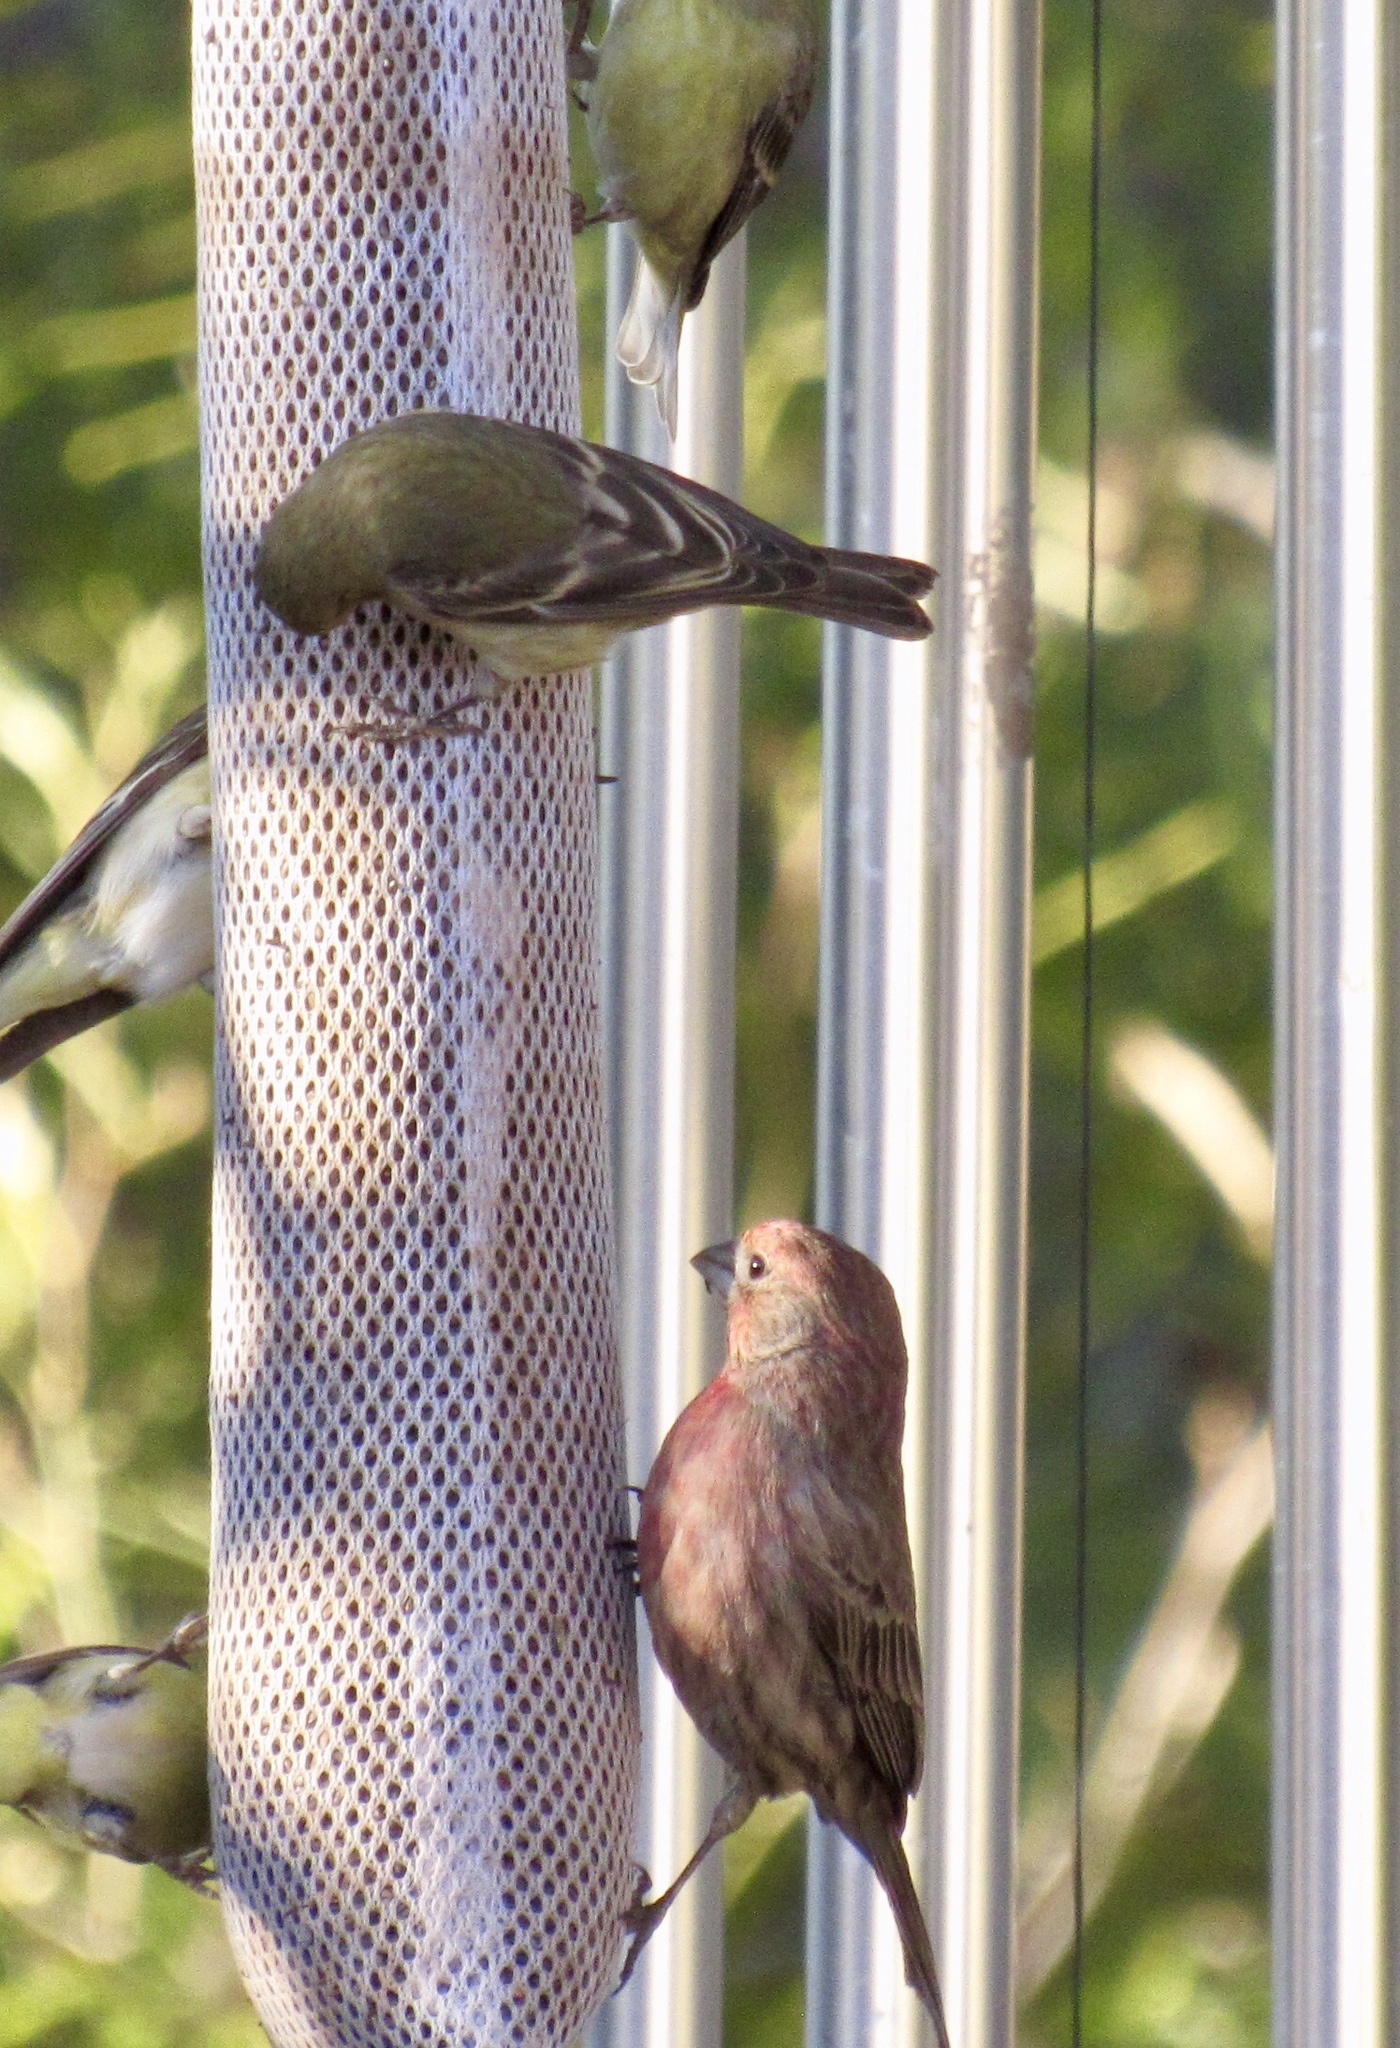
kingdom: Animalia
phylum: Chordata
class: Aves
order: Passeriformes
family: Fringillidae
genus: Haemorhous
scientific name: Haemorhous mexicanus
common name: House finch
